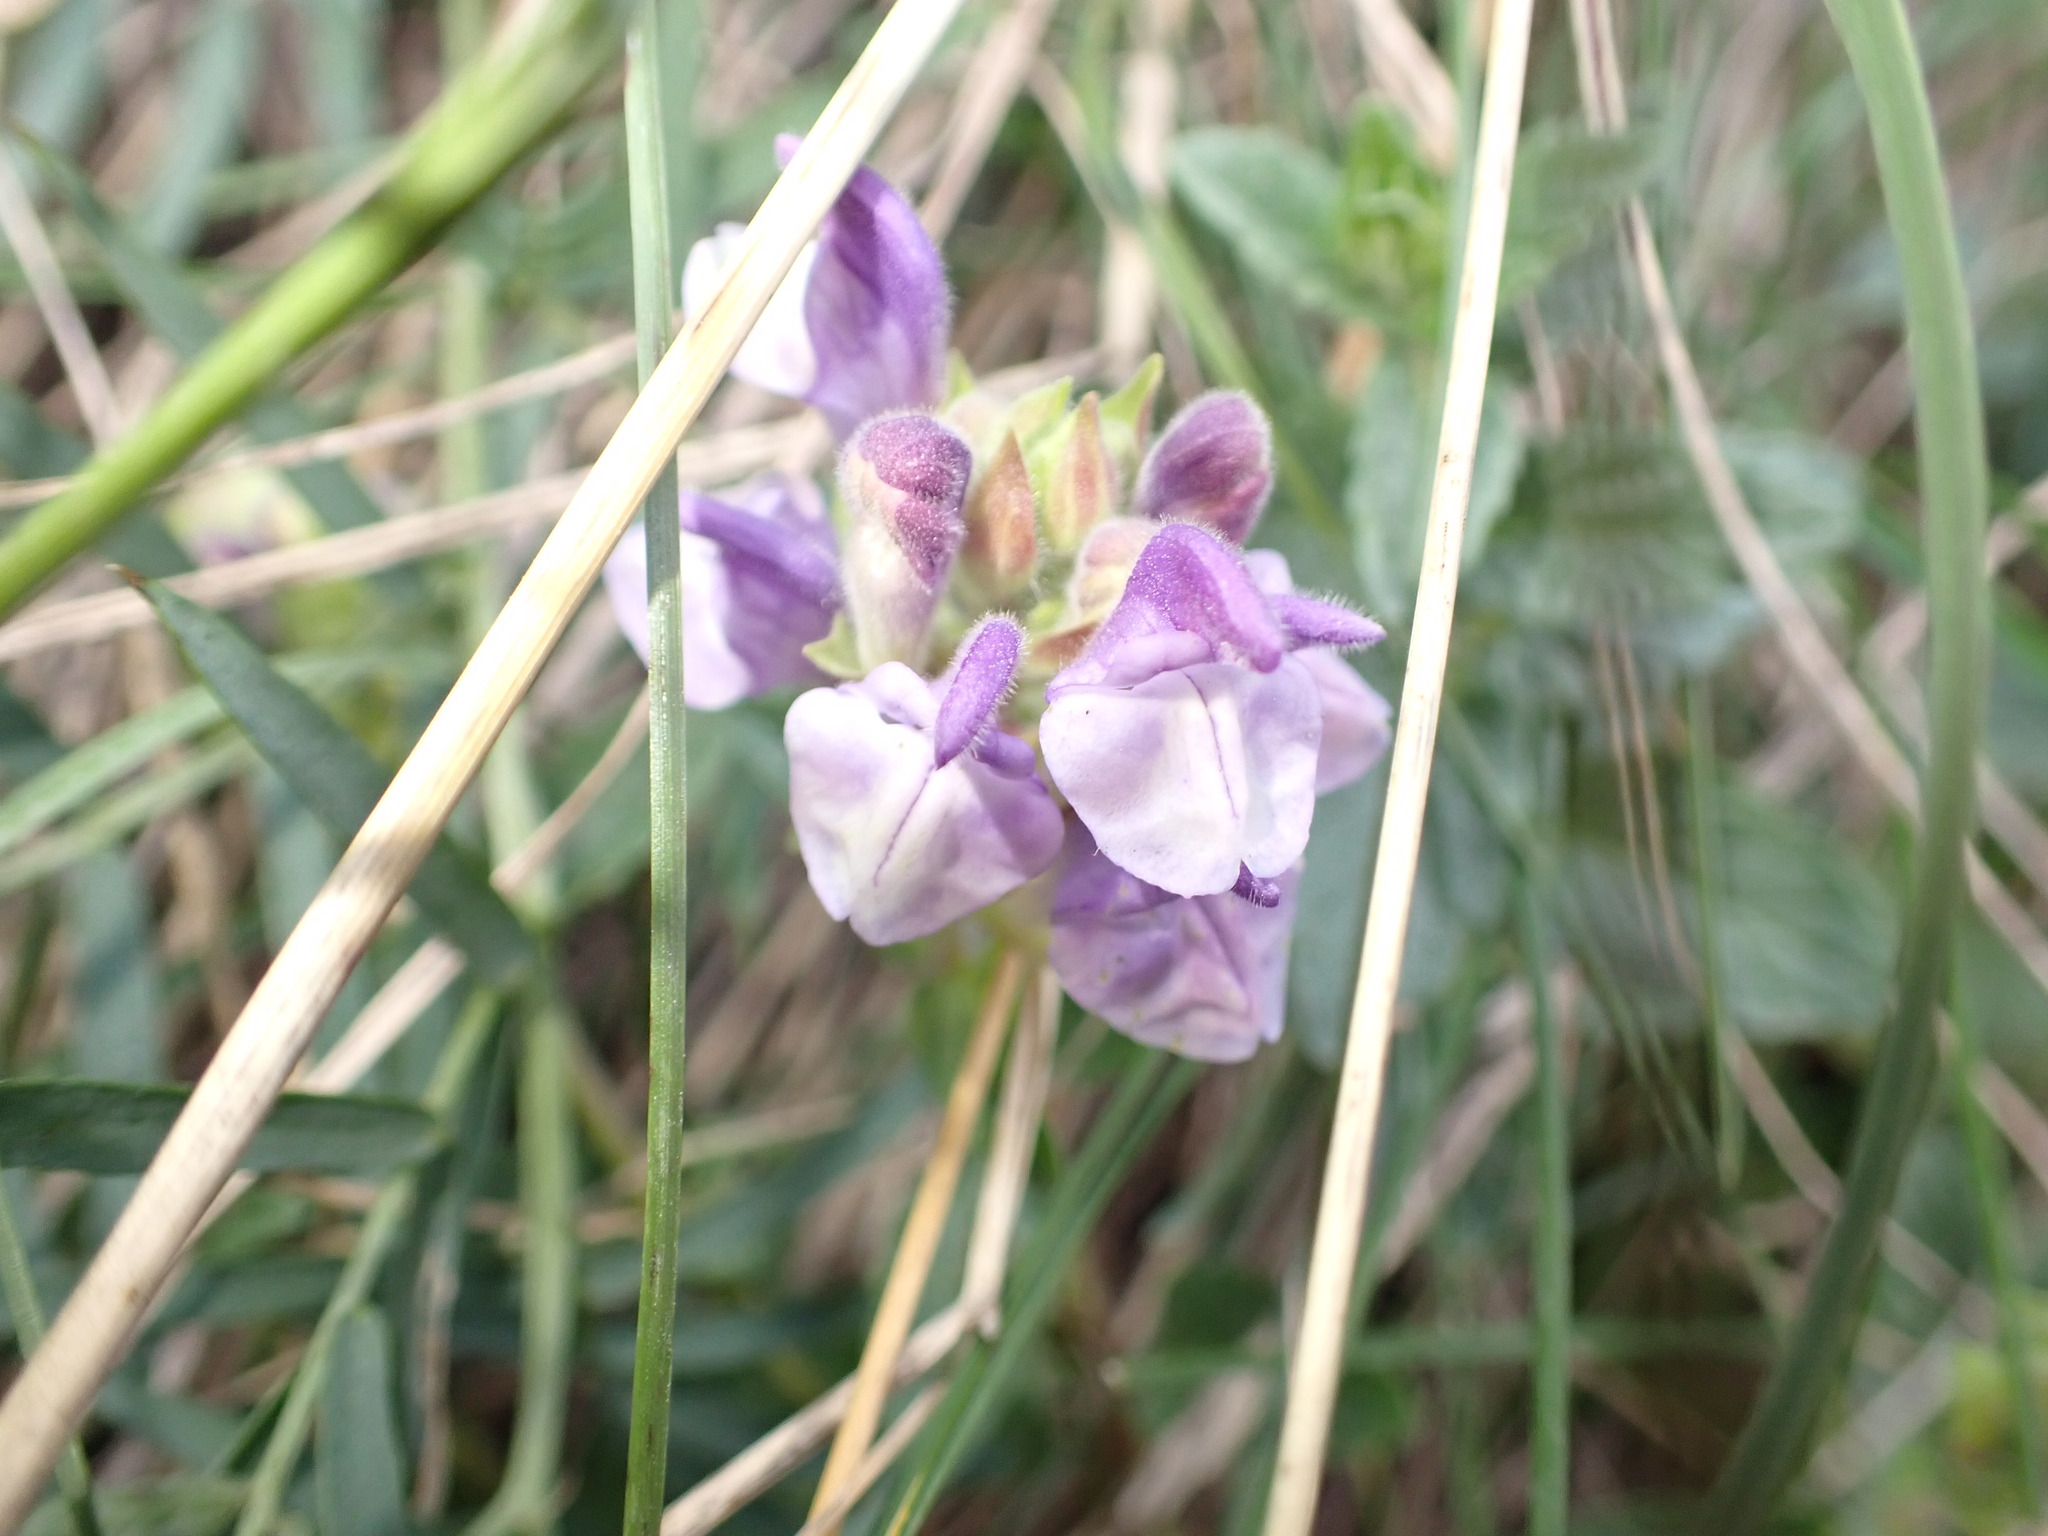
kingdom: Plantae
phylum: Tracheophyta
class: Magnoliopsida
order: Lamiales
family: Lamiaceae
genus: Scutellaria
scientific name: Scutellaria alpina
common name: Alpine scullcap
